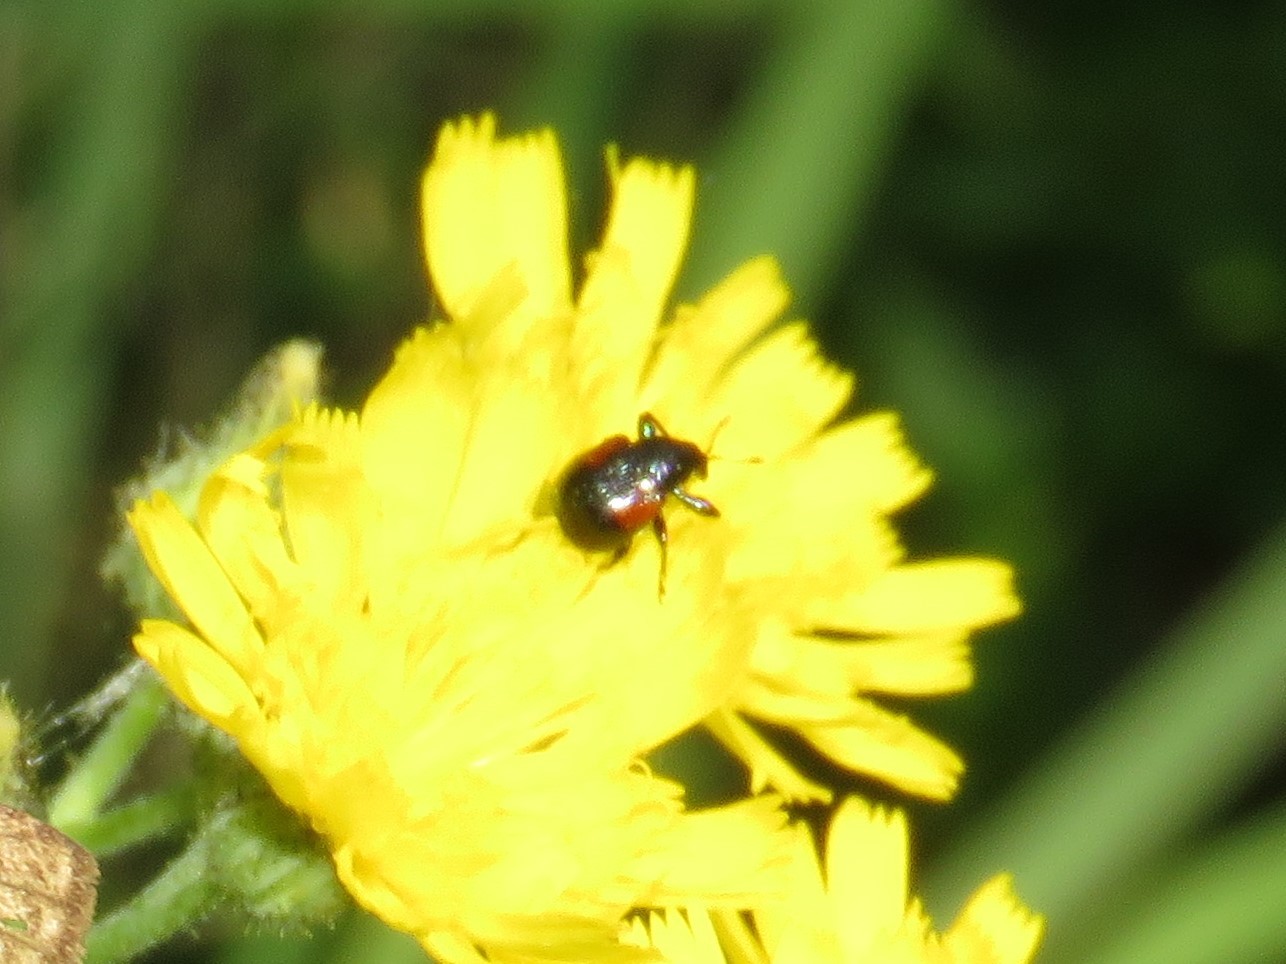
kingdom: Animalia
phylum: Arthropoda
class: Insecta
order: Coleoptera
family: Attelabidae
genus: Attelabus
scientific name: Attelabus bipustulatus
